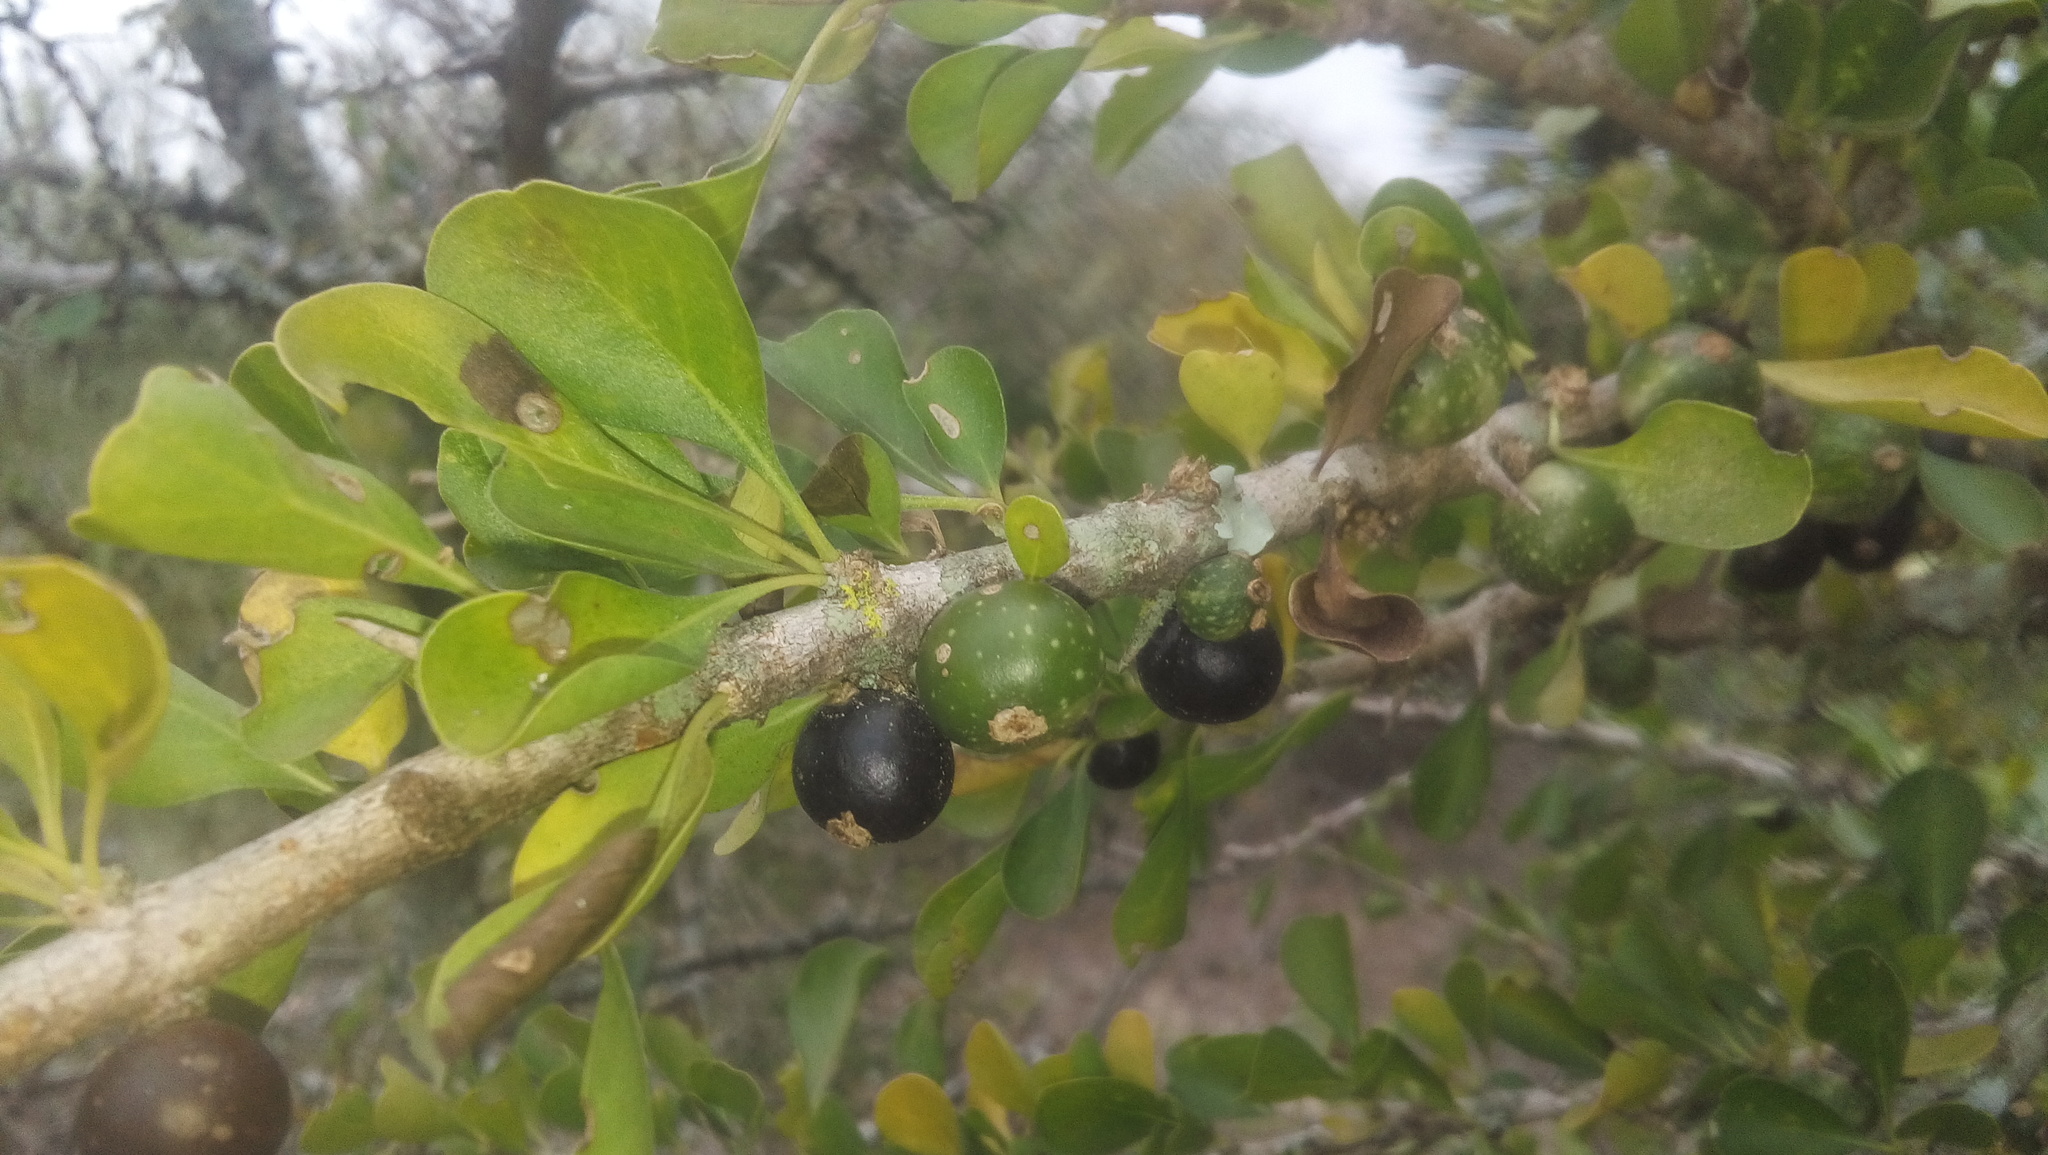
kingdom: Plantae
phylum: Tracheophyta
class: Magnoliopsida
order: Gentianales
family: Rubiaceae
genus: Randia
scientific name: Randia obcordata
